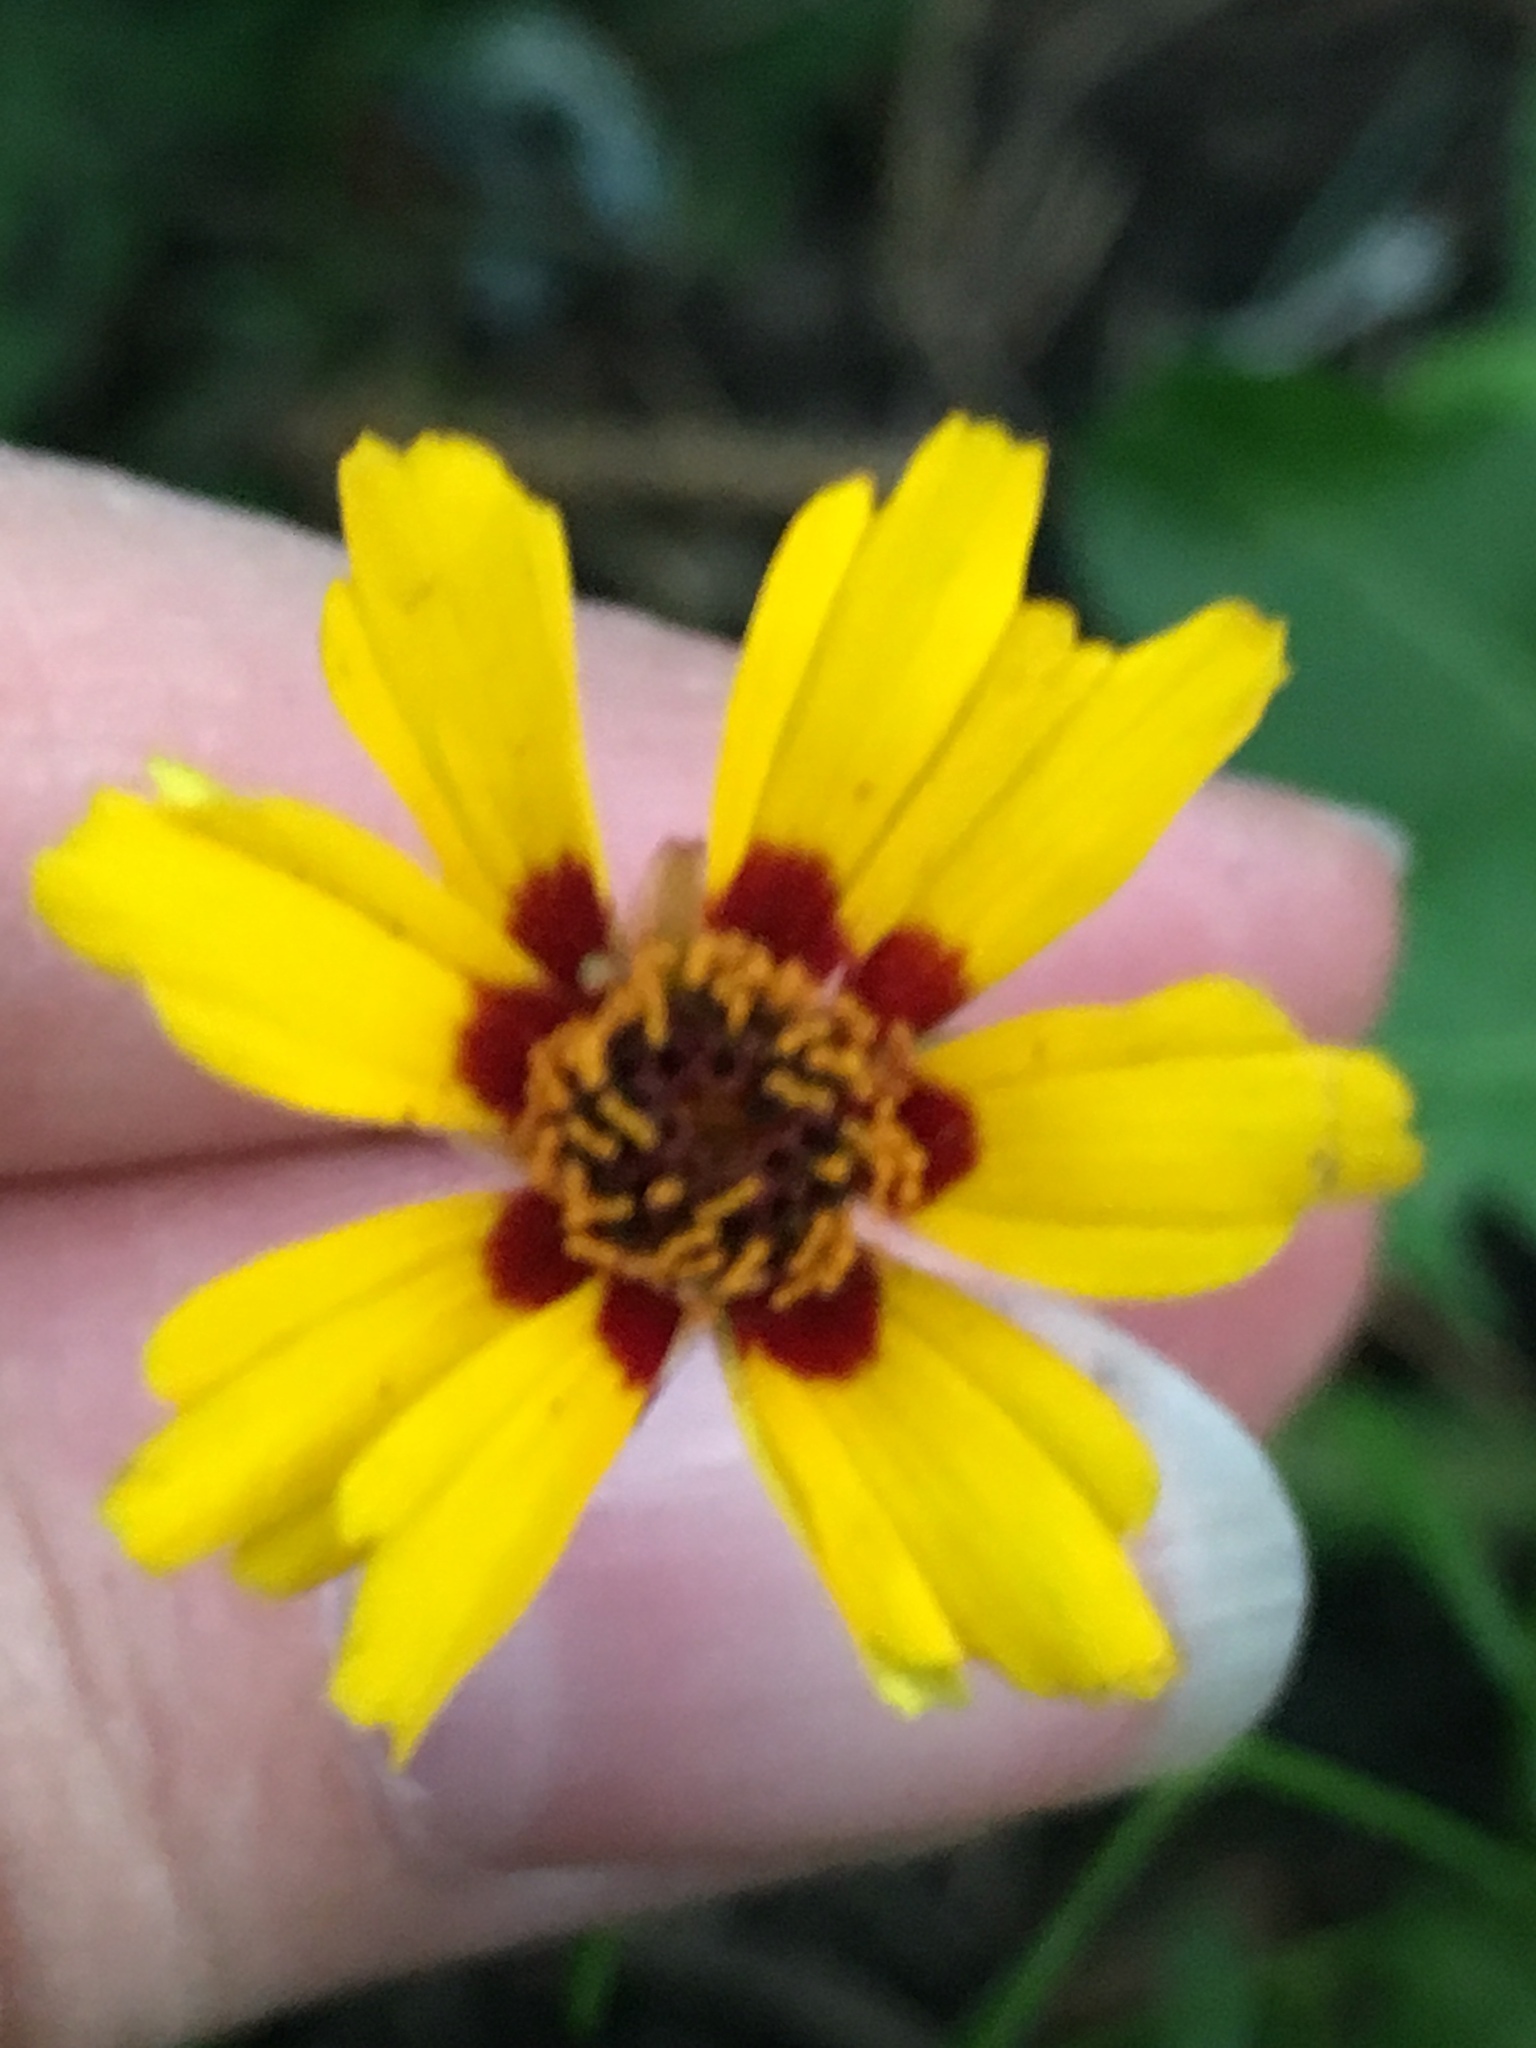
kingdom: Plantae
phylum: Tracheophyta
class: Magnoliopsida
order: Asterales
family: Asteraceae
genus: Coreopsis
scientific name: Coreopsis tinctoria
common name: Garden tickseed
